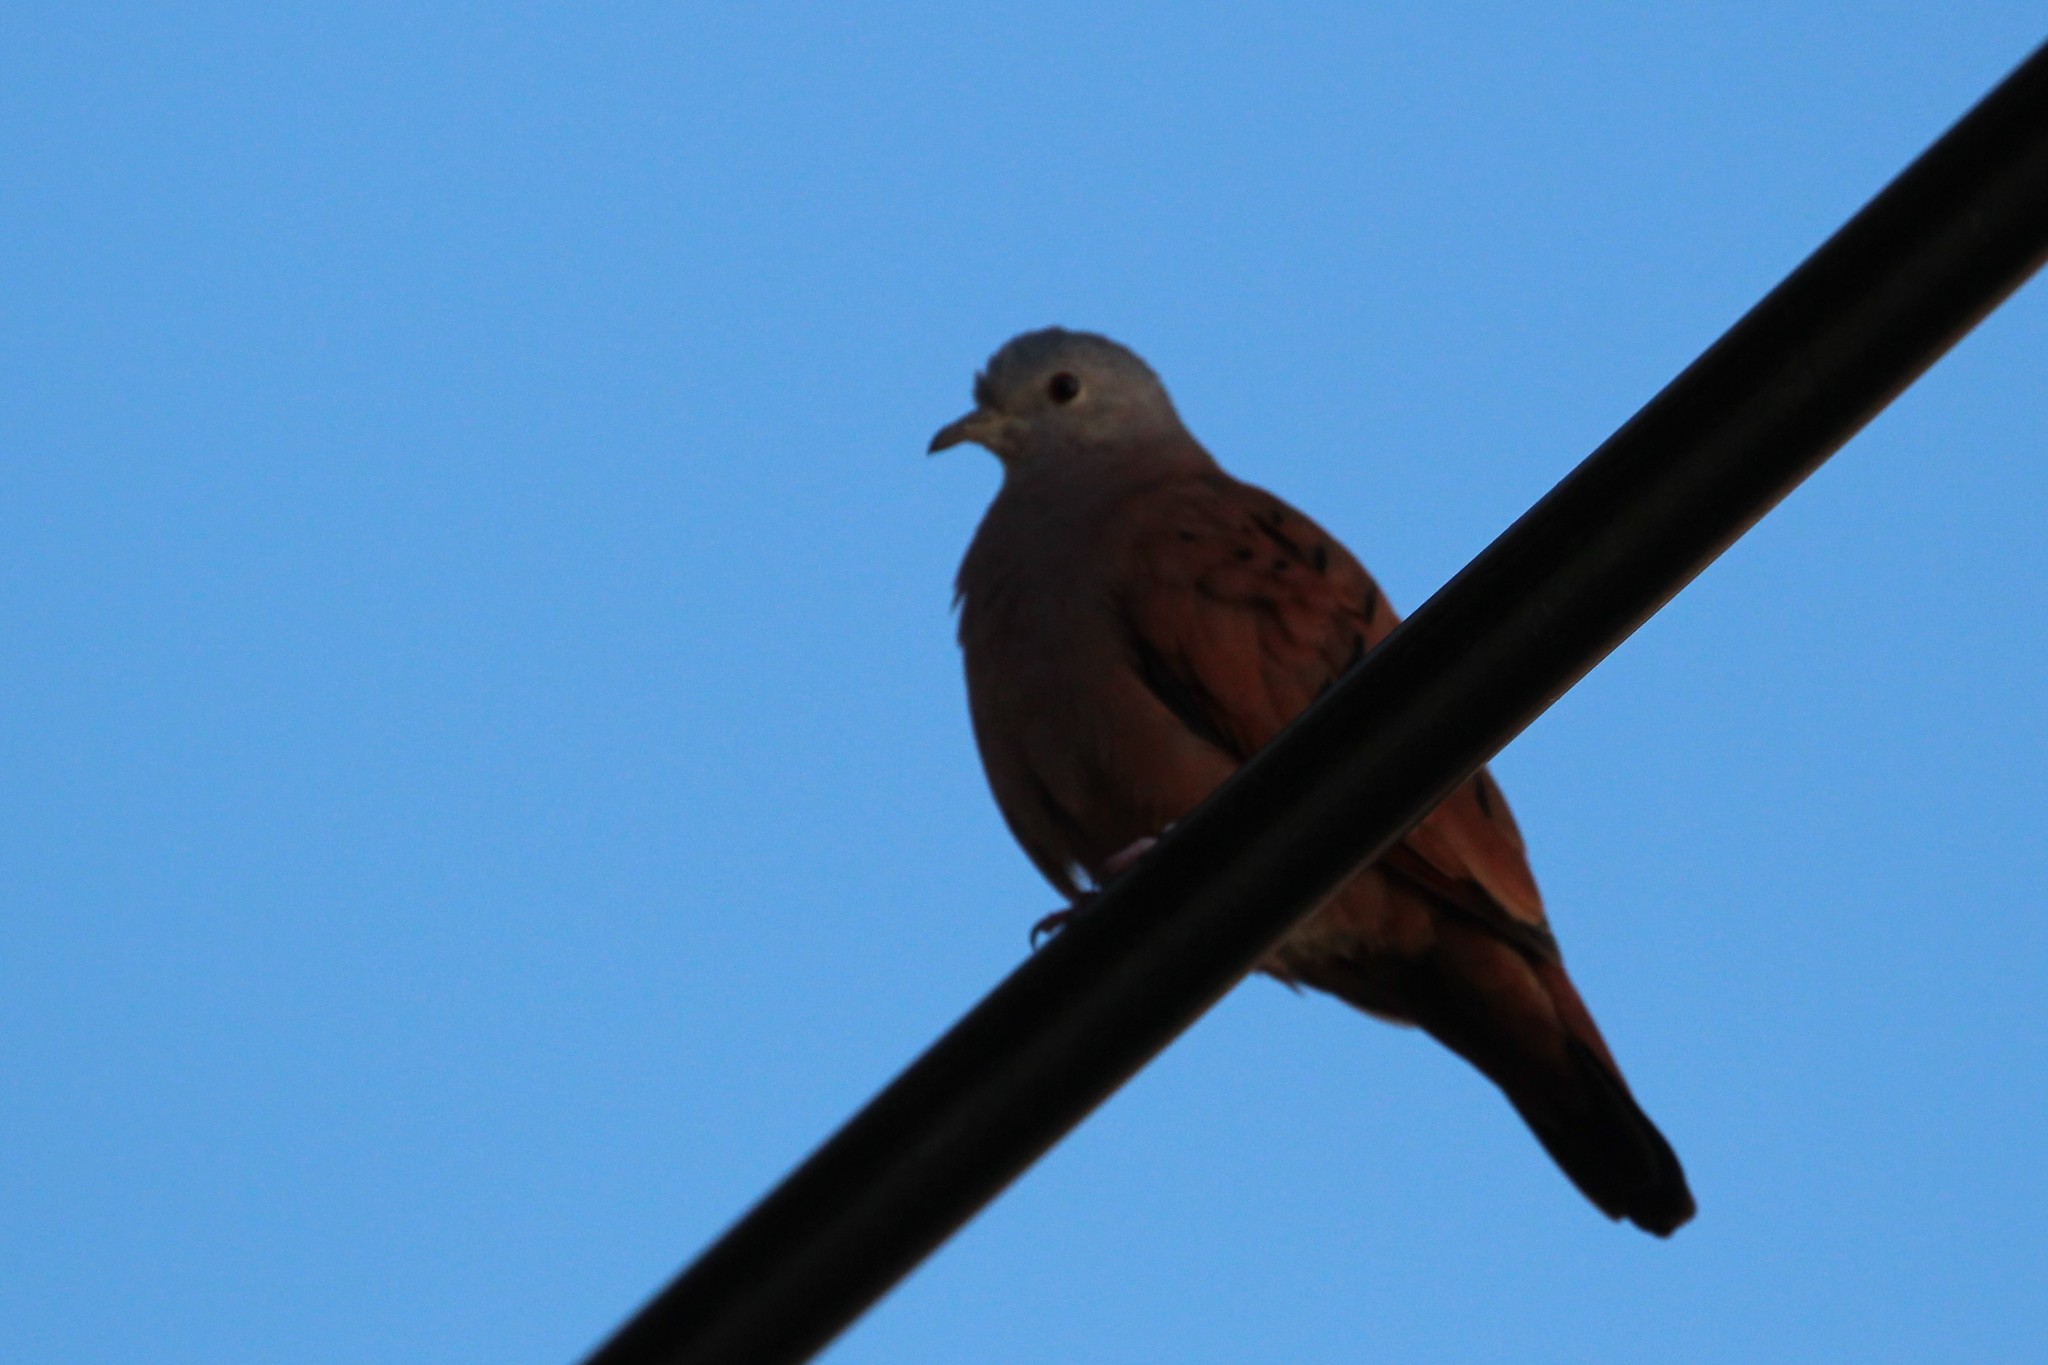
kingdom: Animalia
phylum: Chordata
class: Aves
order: Columbiformes
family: Columbidae
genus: Columbina
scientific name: Columbina talpacoti
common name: Ruddy ground dove
